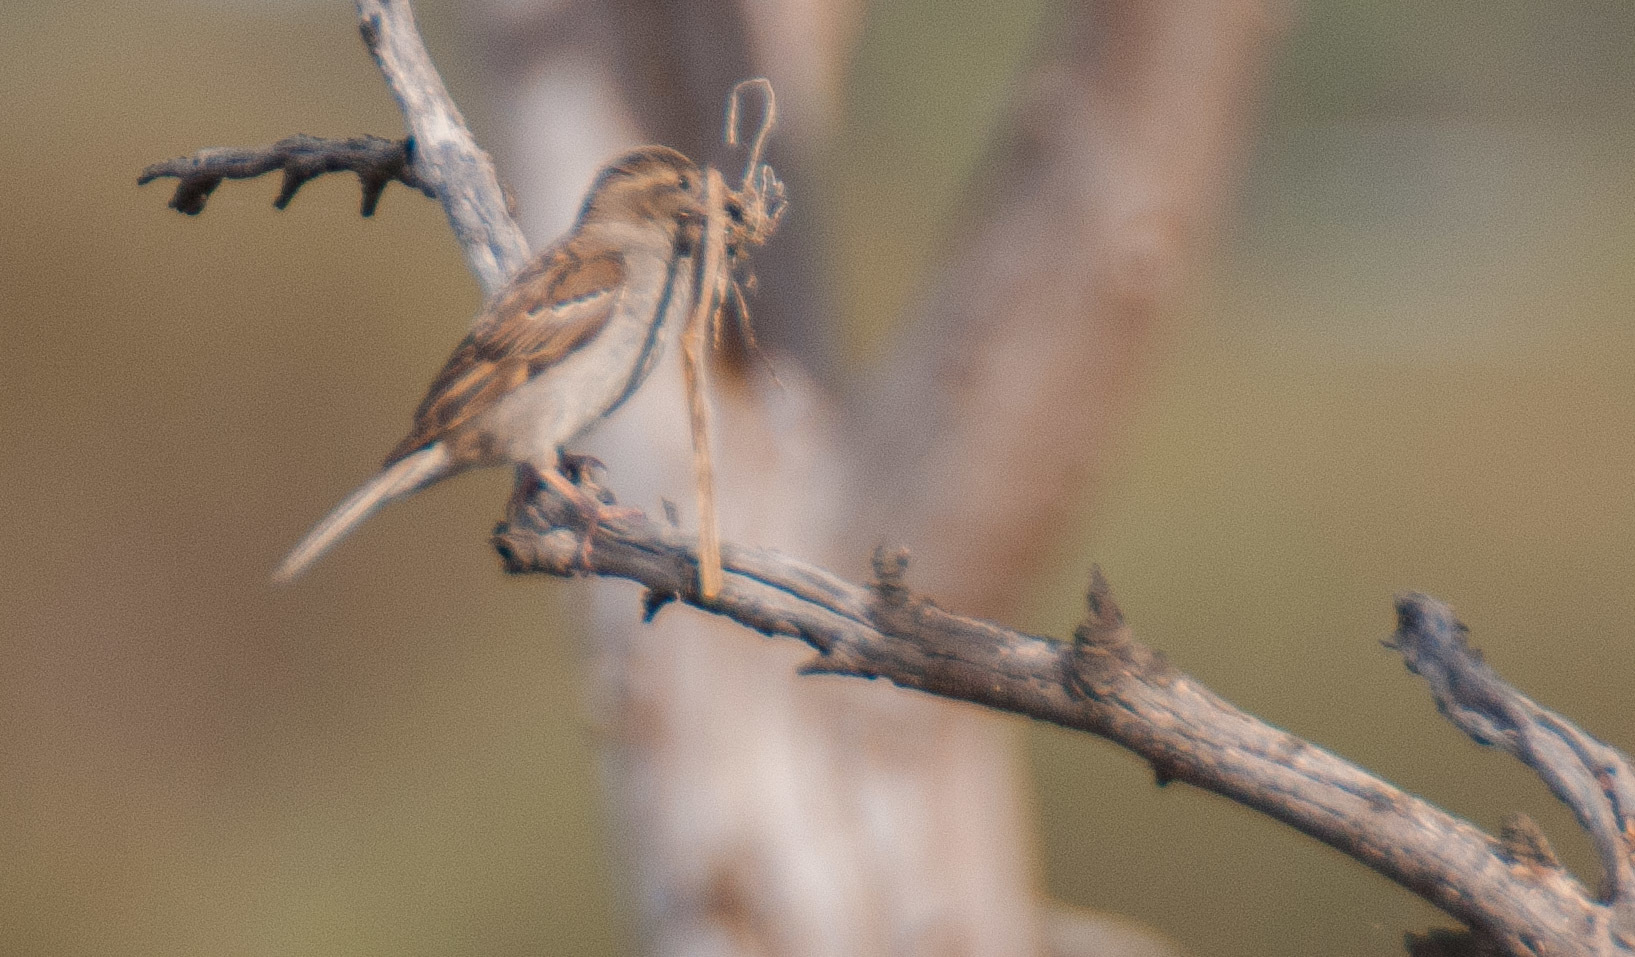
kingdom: Animalia
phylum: Chordata
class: Aves
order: Passeriformes
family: Passeridae
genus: Passer
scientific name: Passer domesticus
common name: House sparrow
